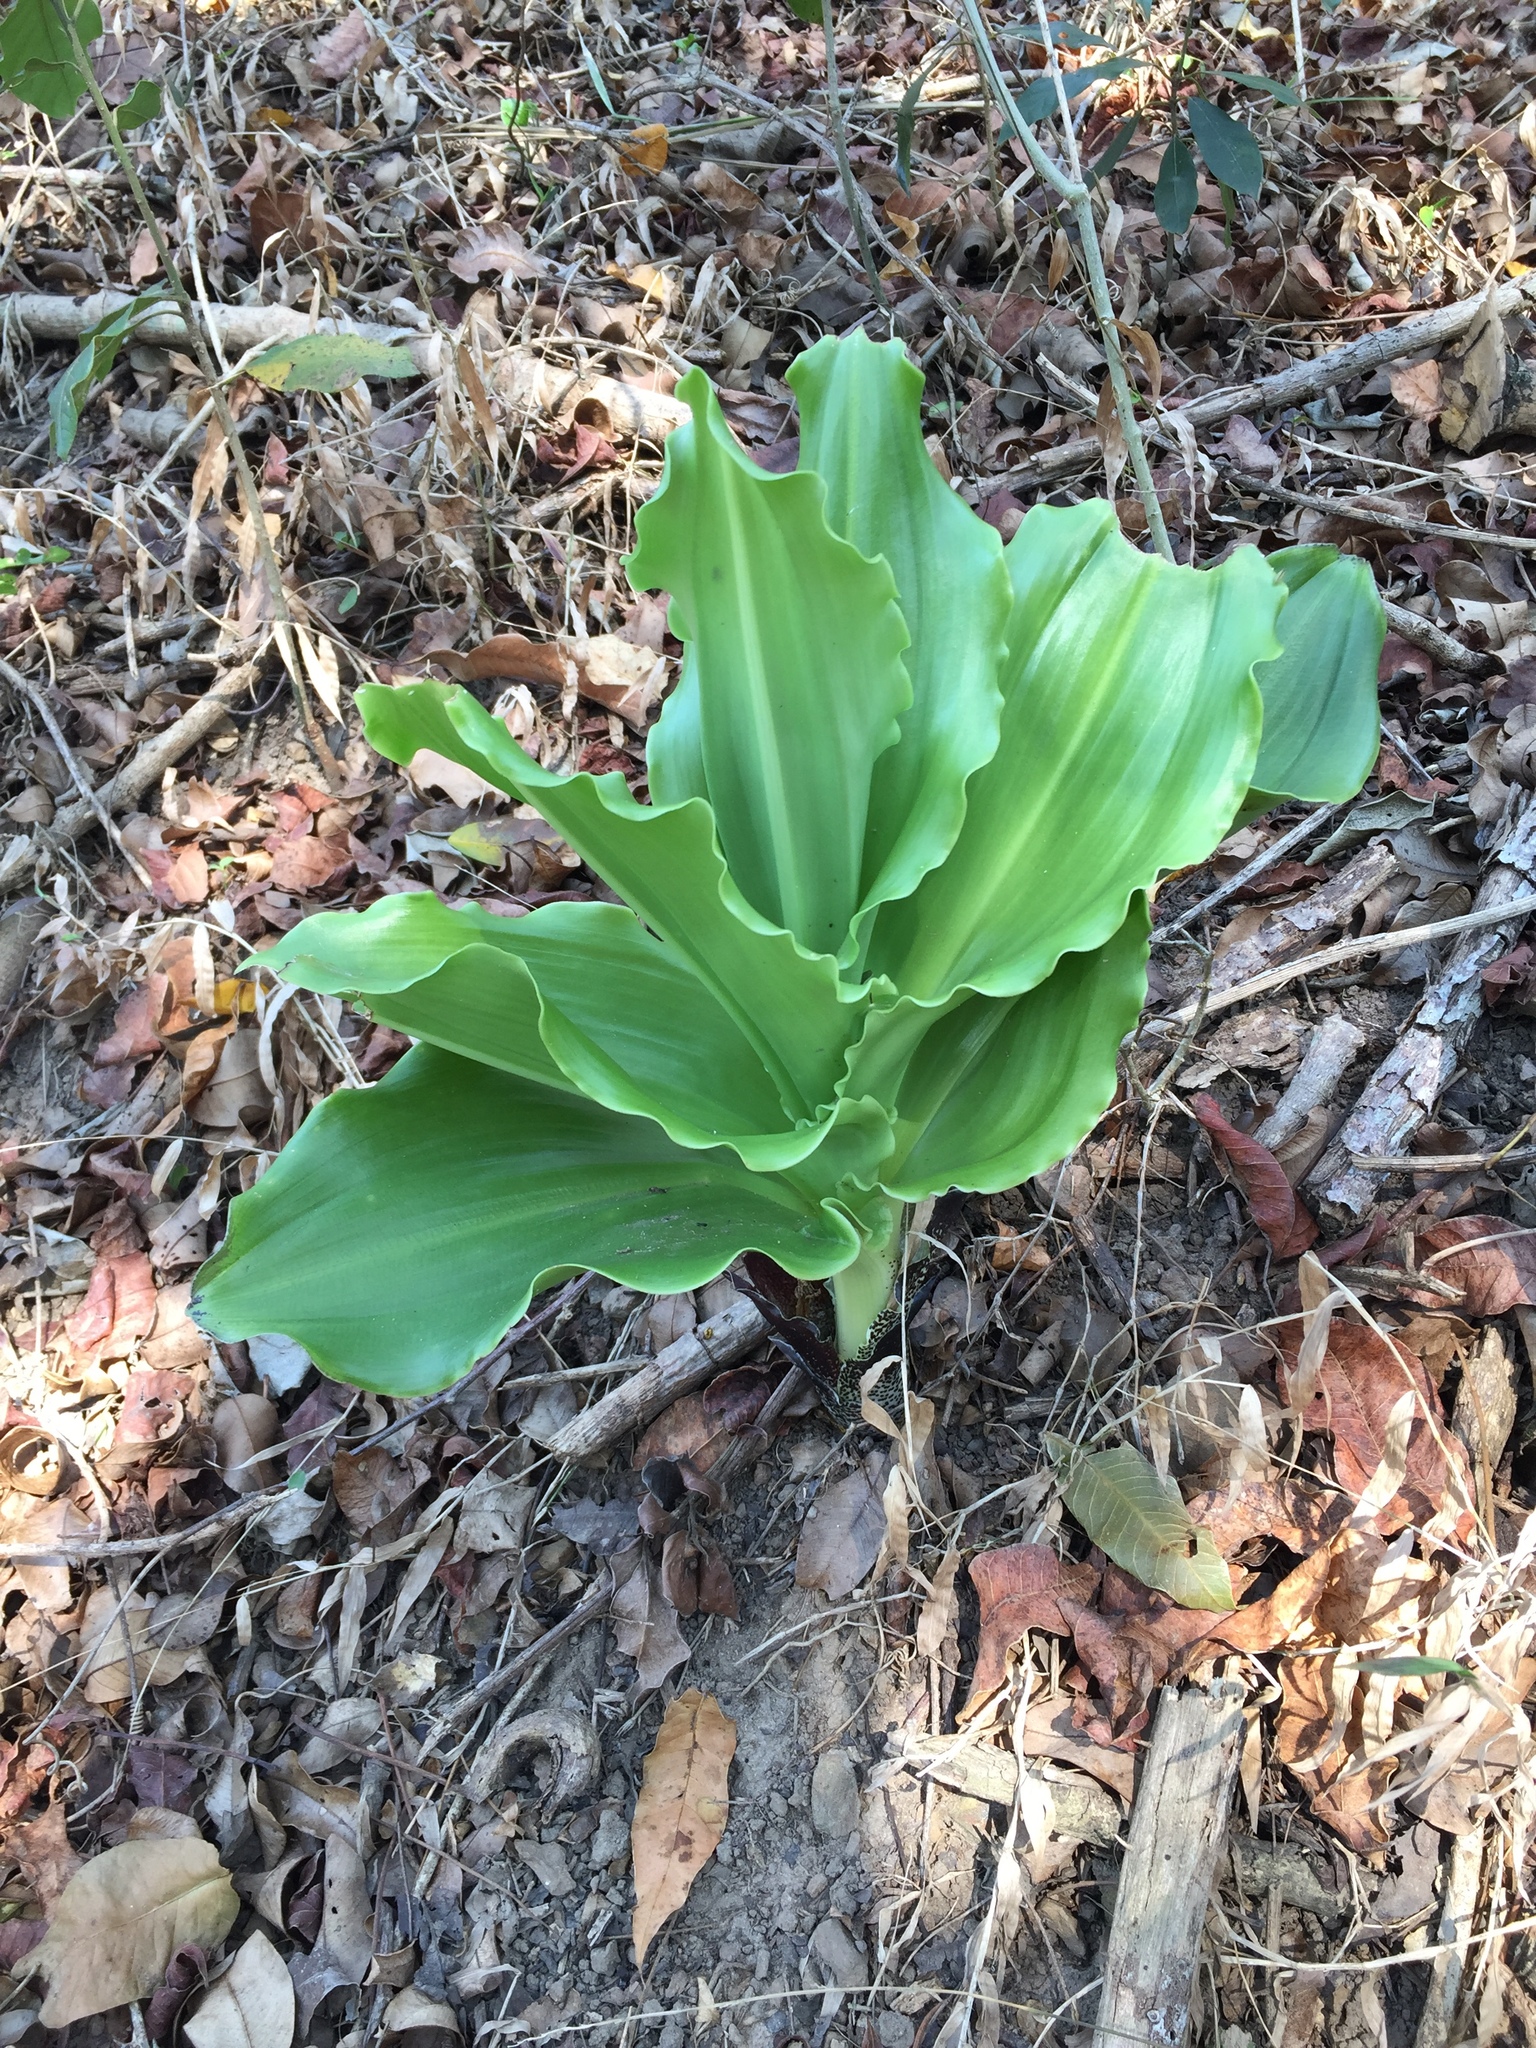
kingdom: Plantae
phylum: Tracheophyta
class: Liliopsida
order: Asparagales
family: Amaryllidaceae
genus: Scadoxus
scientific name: Scadoxus puniceus
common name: Royal-paintbrush
